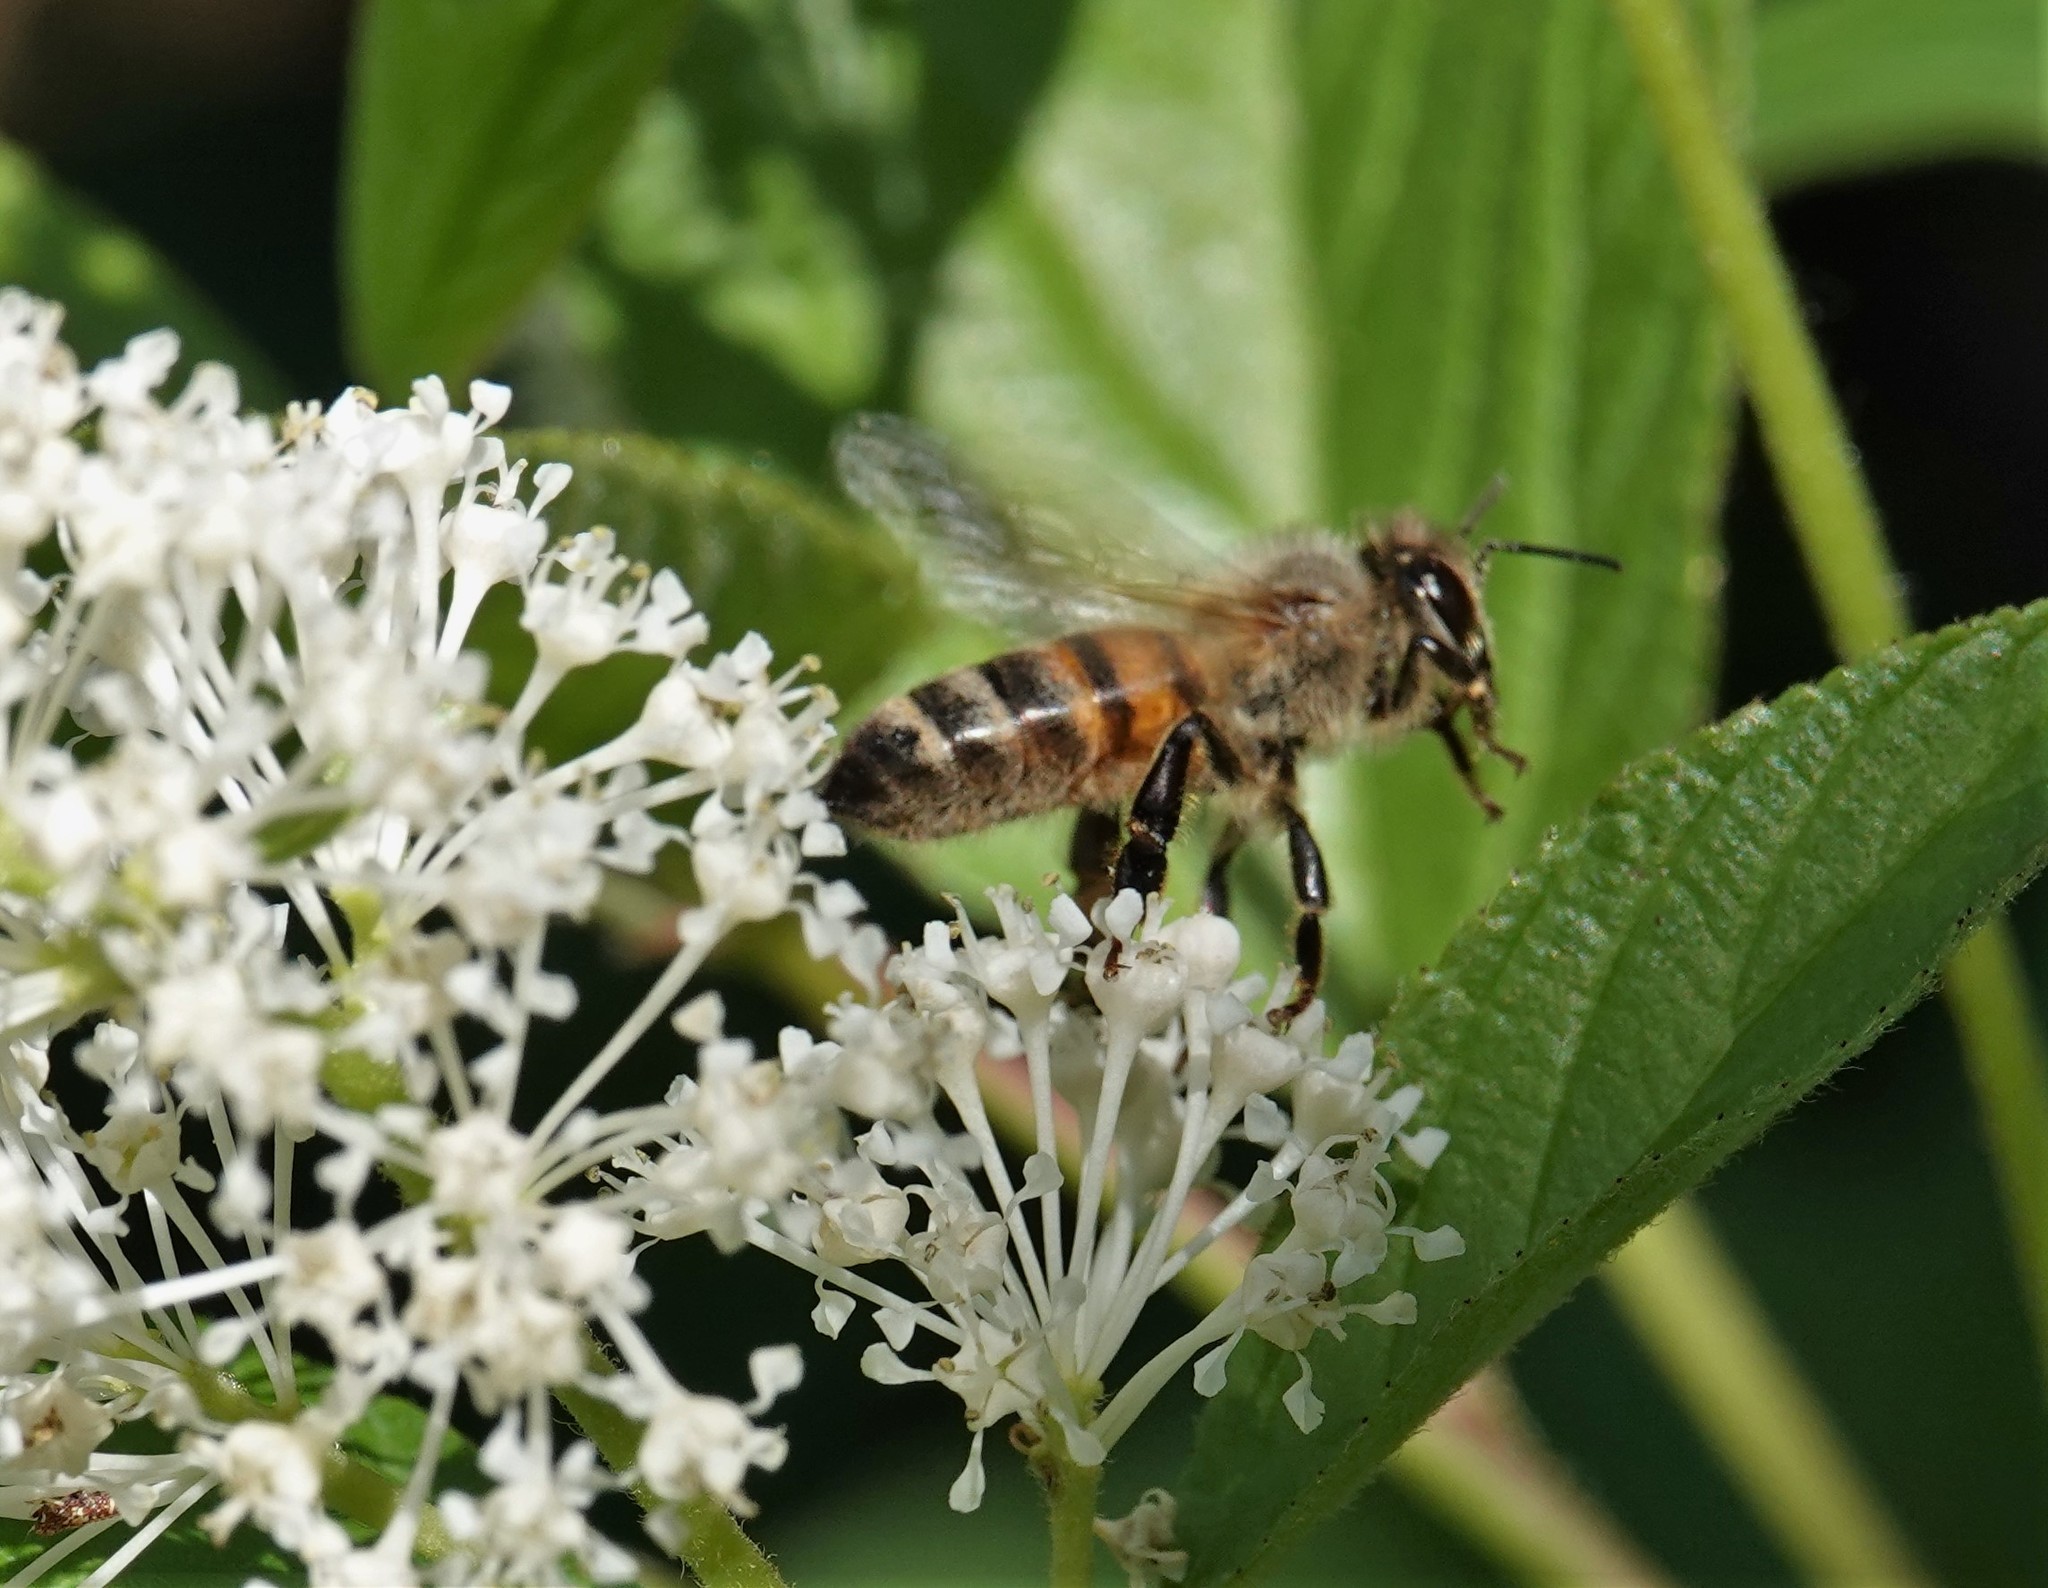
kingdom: Animalia
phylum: Arthropoda
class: Insecta
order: Hymenoptera
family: Apidae
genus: Apis
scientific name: Apis mellifera
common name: Honey bee
